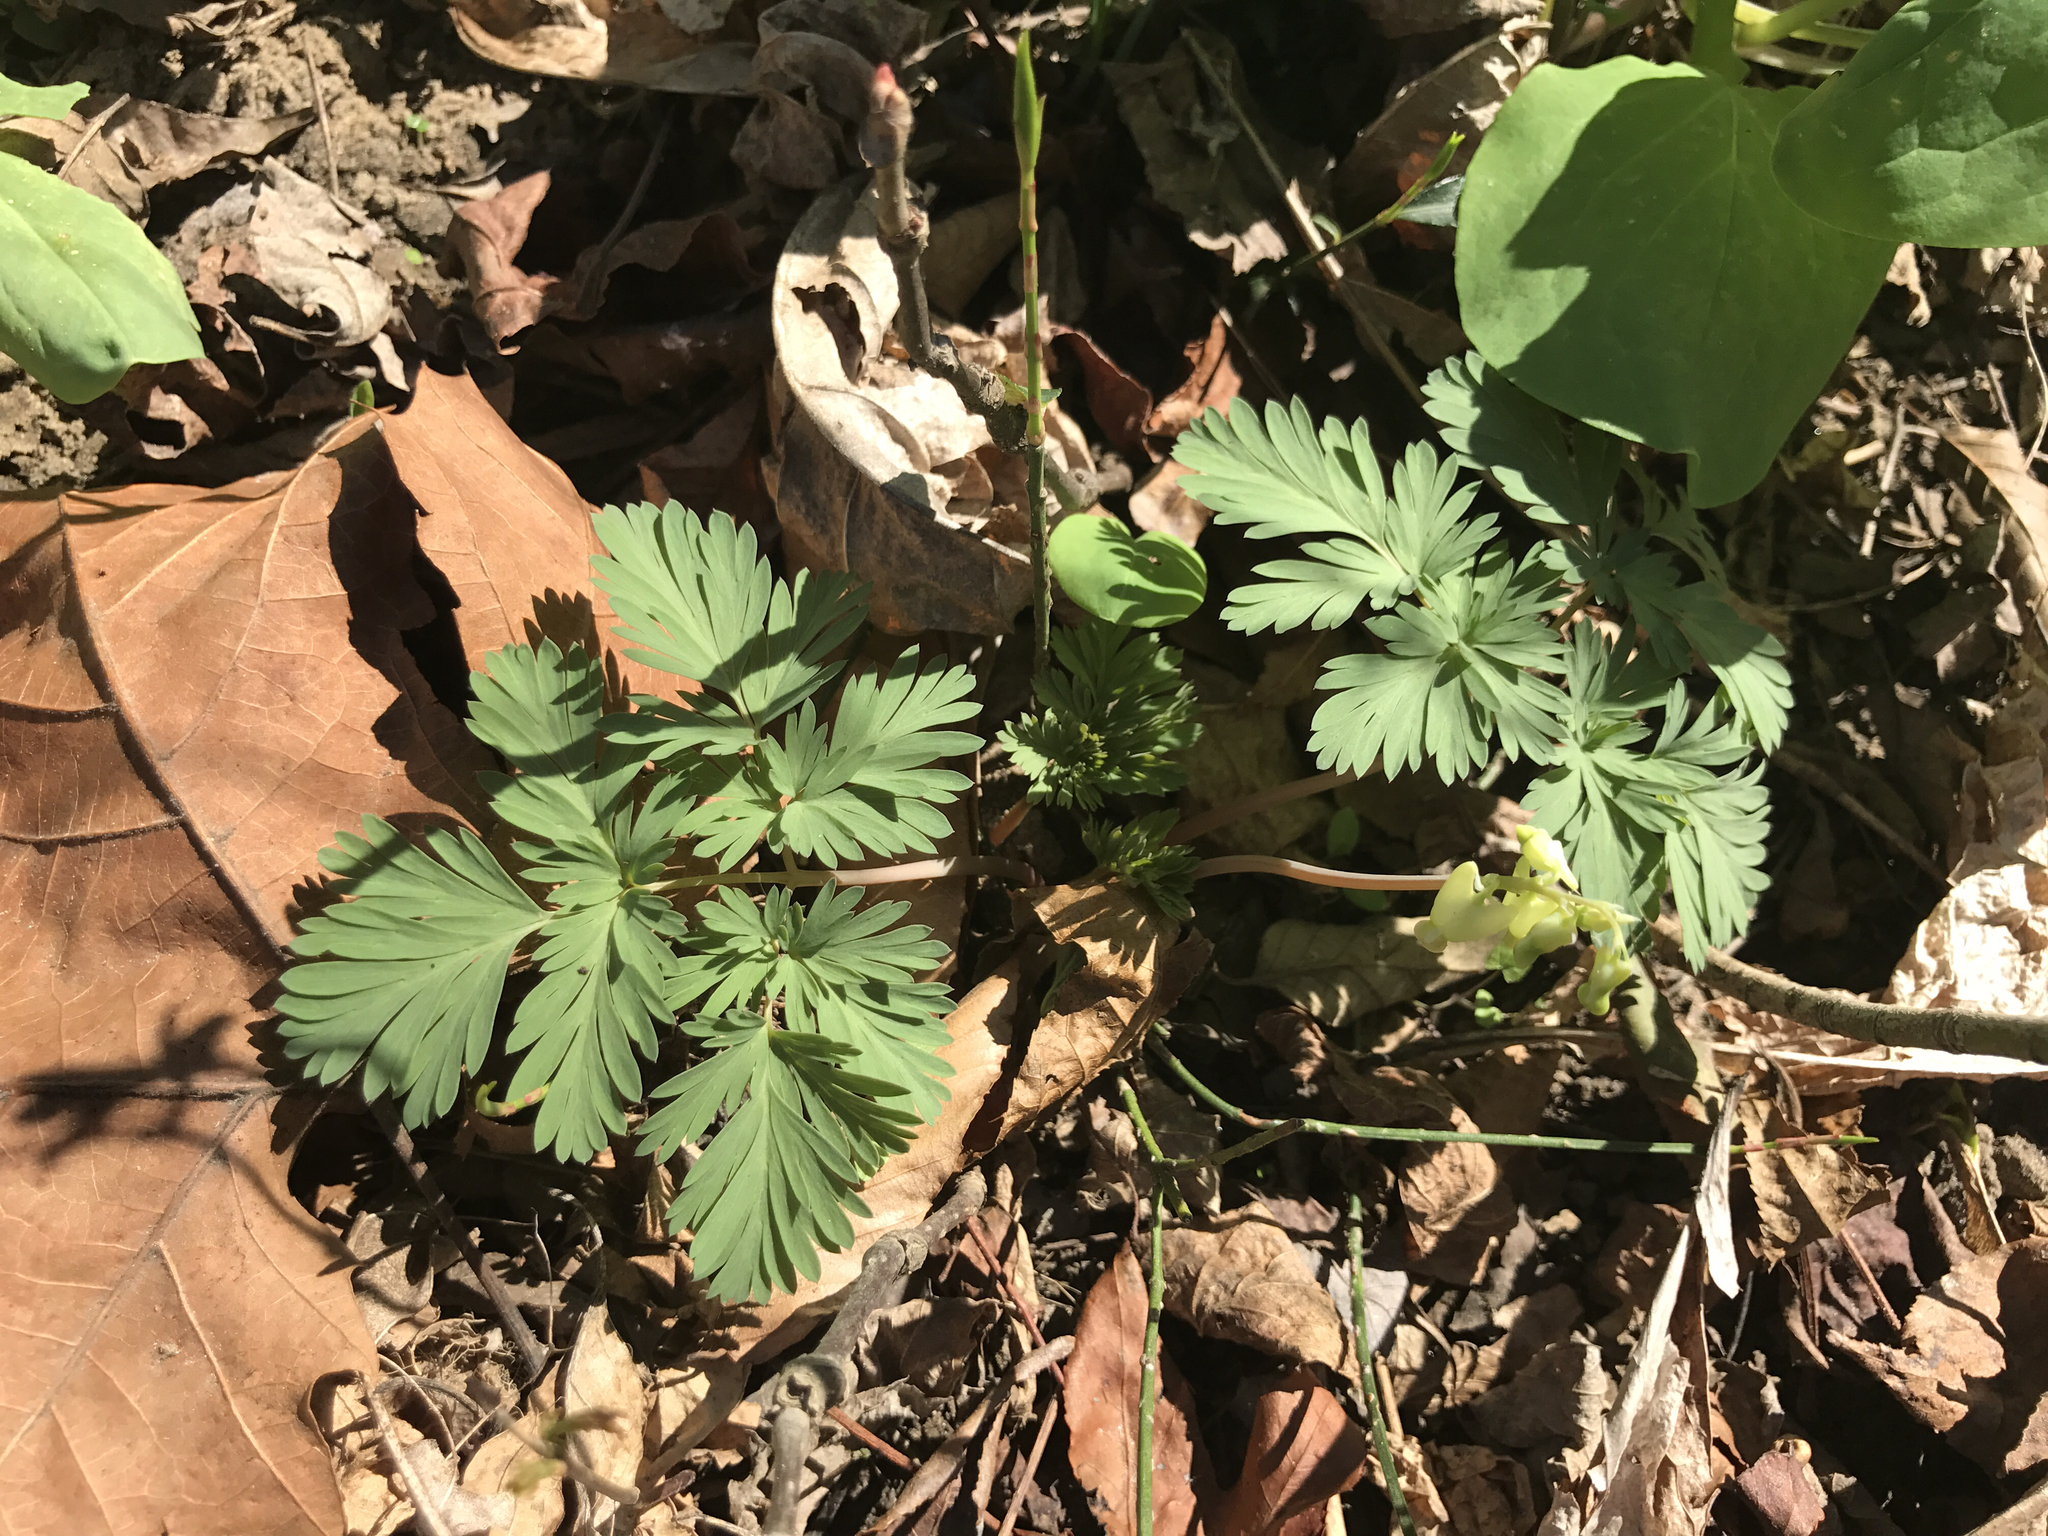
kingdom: Plantae
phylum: Tracheophyta
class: Magnoliopsida
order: Ranunculales
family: Papaveraceae
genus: Dicentra
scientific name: Dicentra cucullaria
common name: Dutchman's breeches
